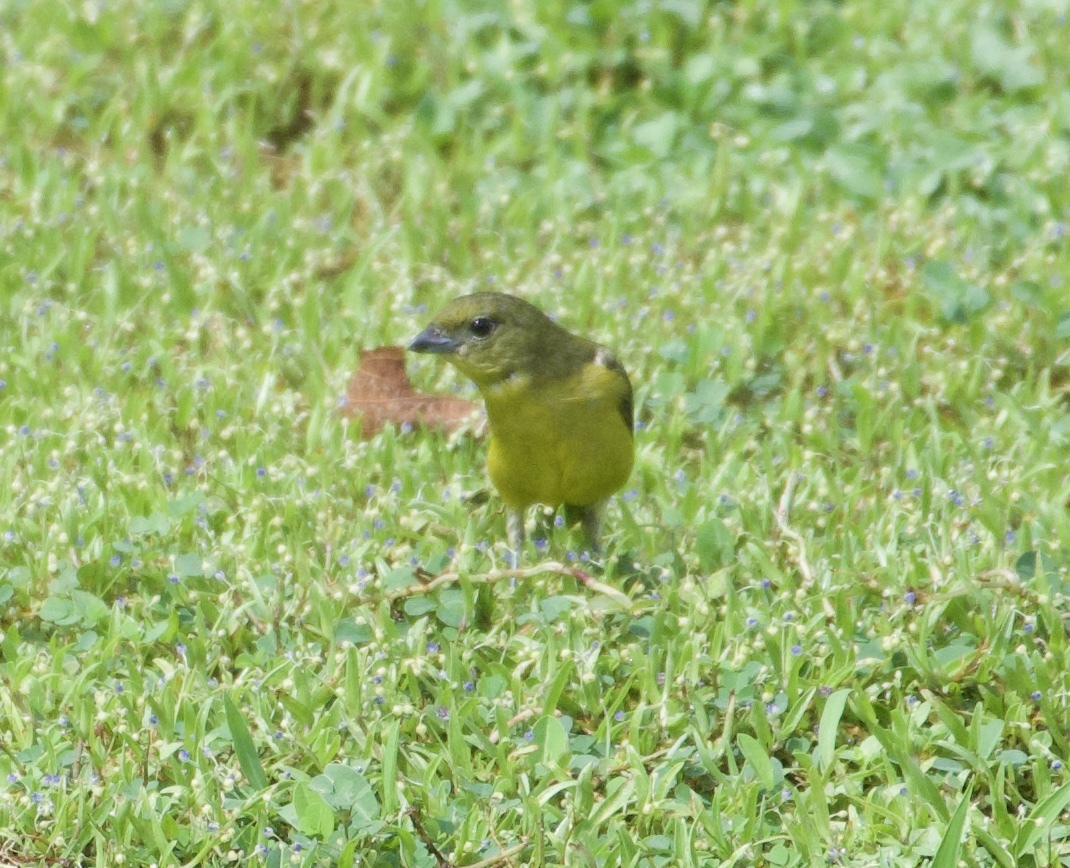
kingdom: Animalia
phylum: Chordata
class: Aves
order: Passeriformes
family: Fringillidae
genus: Euphonia
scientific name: Euphonia laniirostris
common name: Thick-billed euphonia
